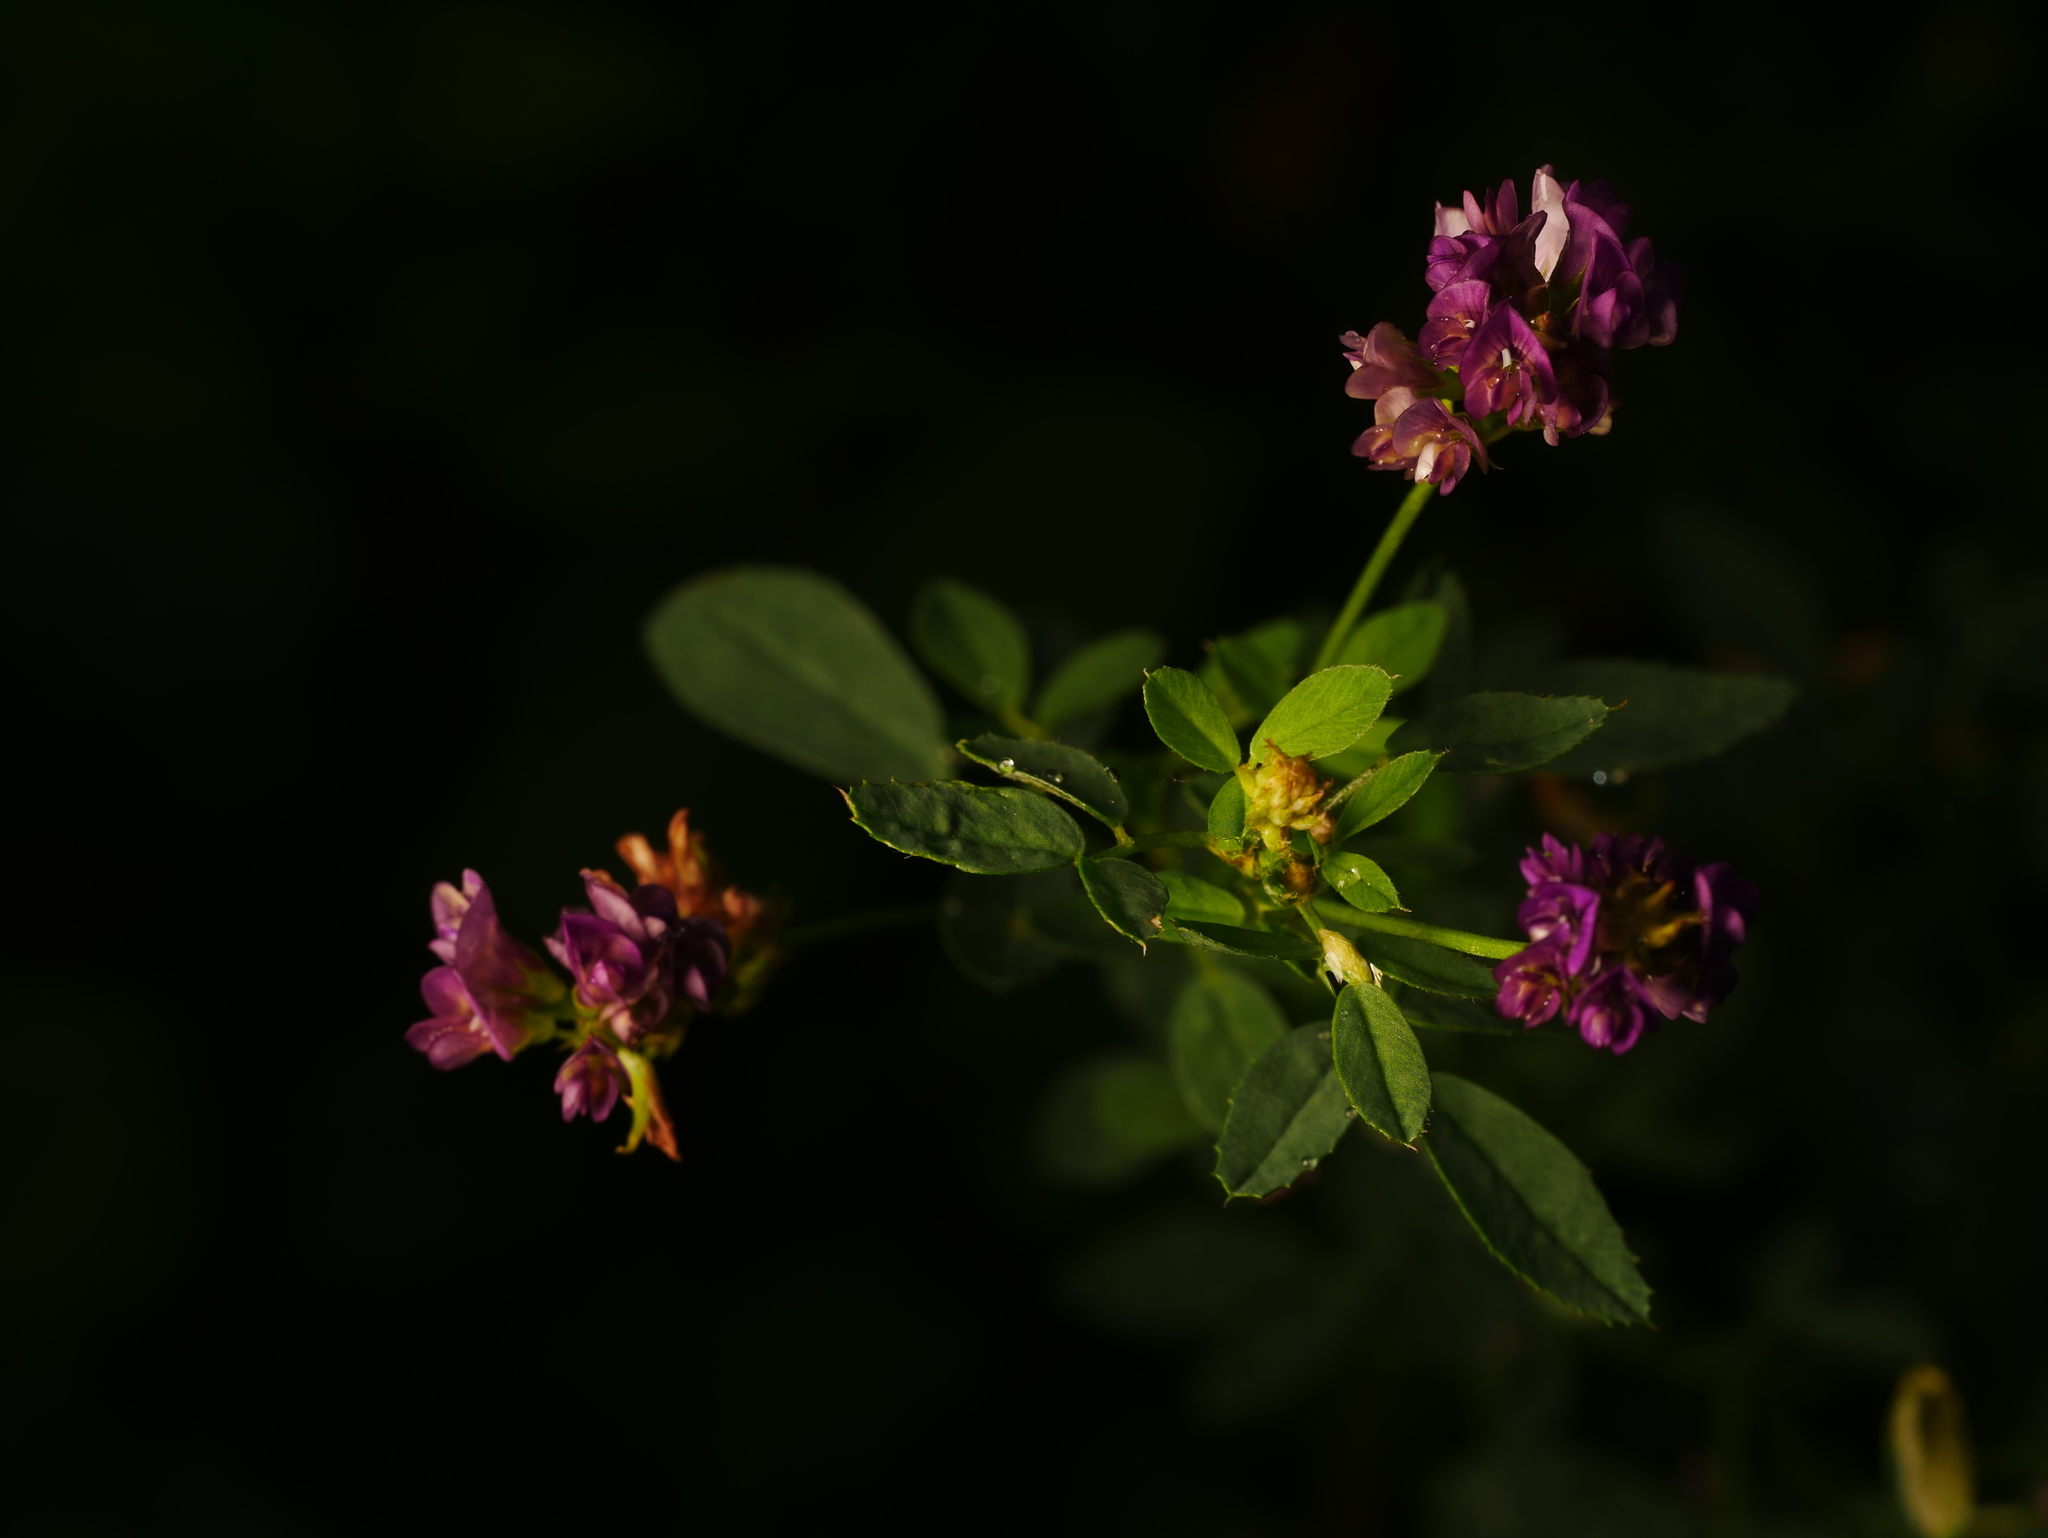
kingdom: Plantae
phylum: Tracheophyta
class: Magnoliopsida
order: Fabales
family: Fabaceae
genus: Medicago
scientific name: Medicago sativa
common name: Alfalfa
